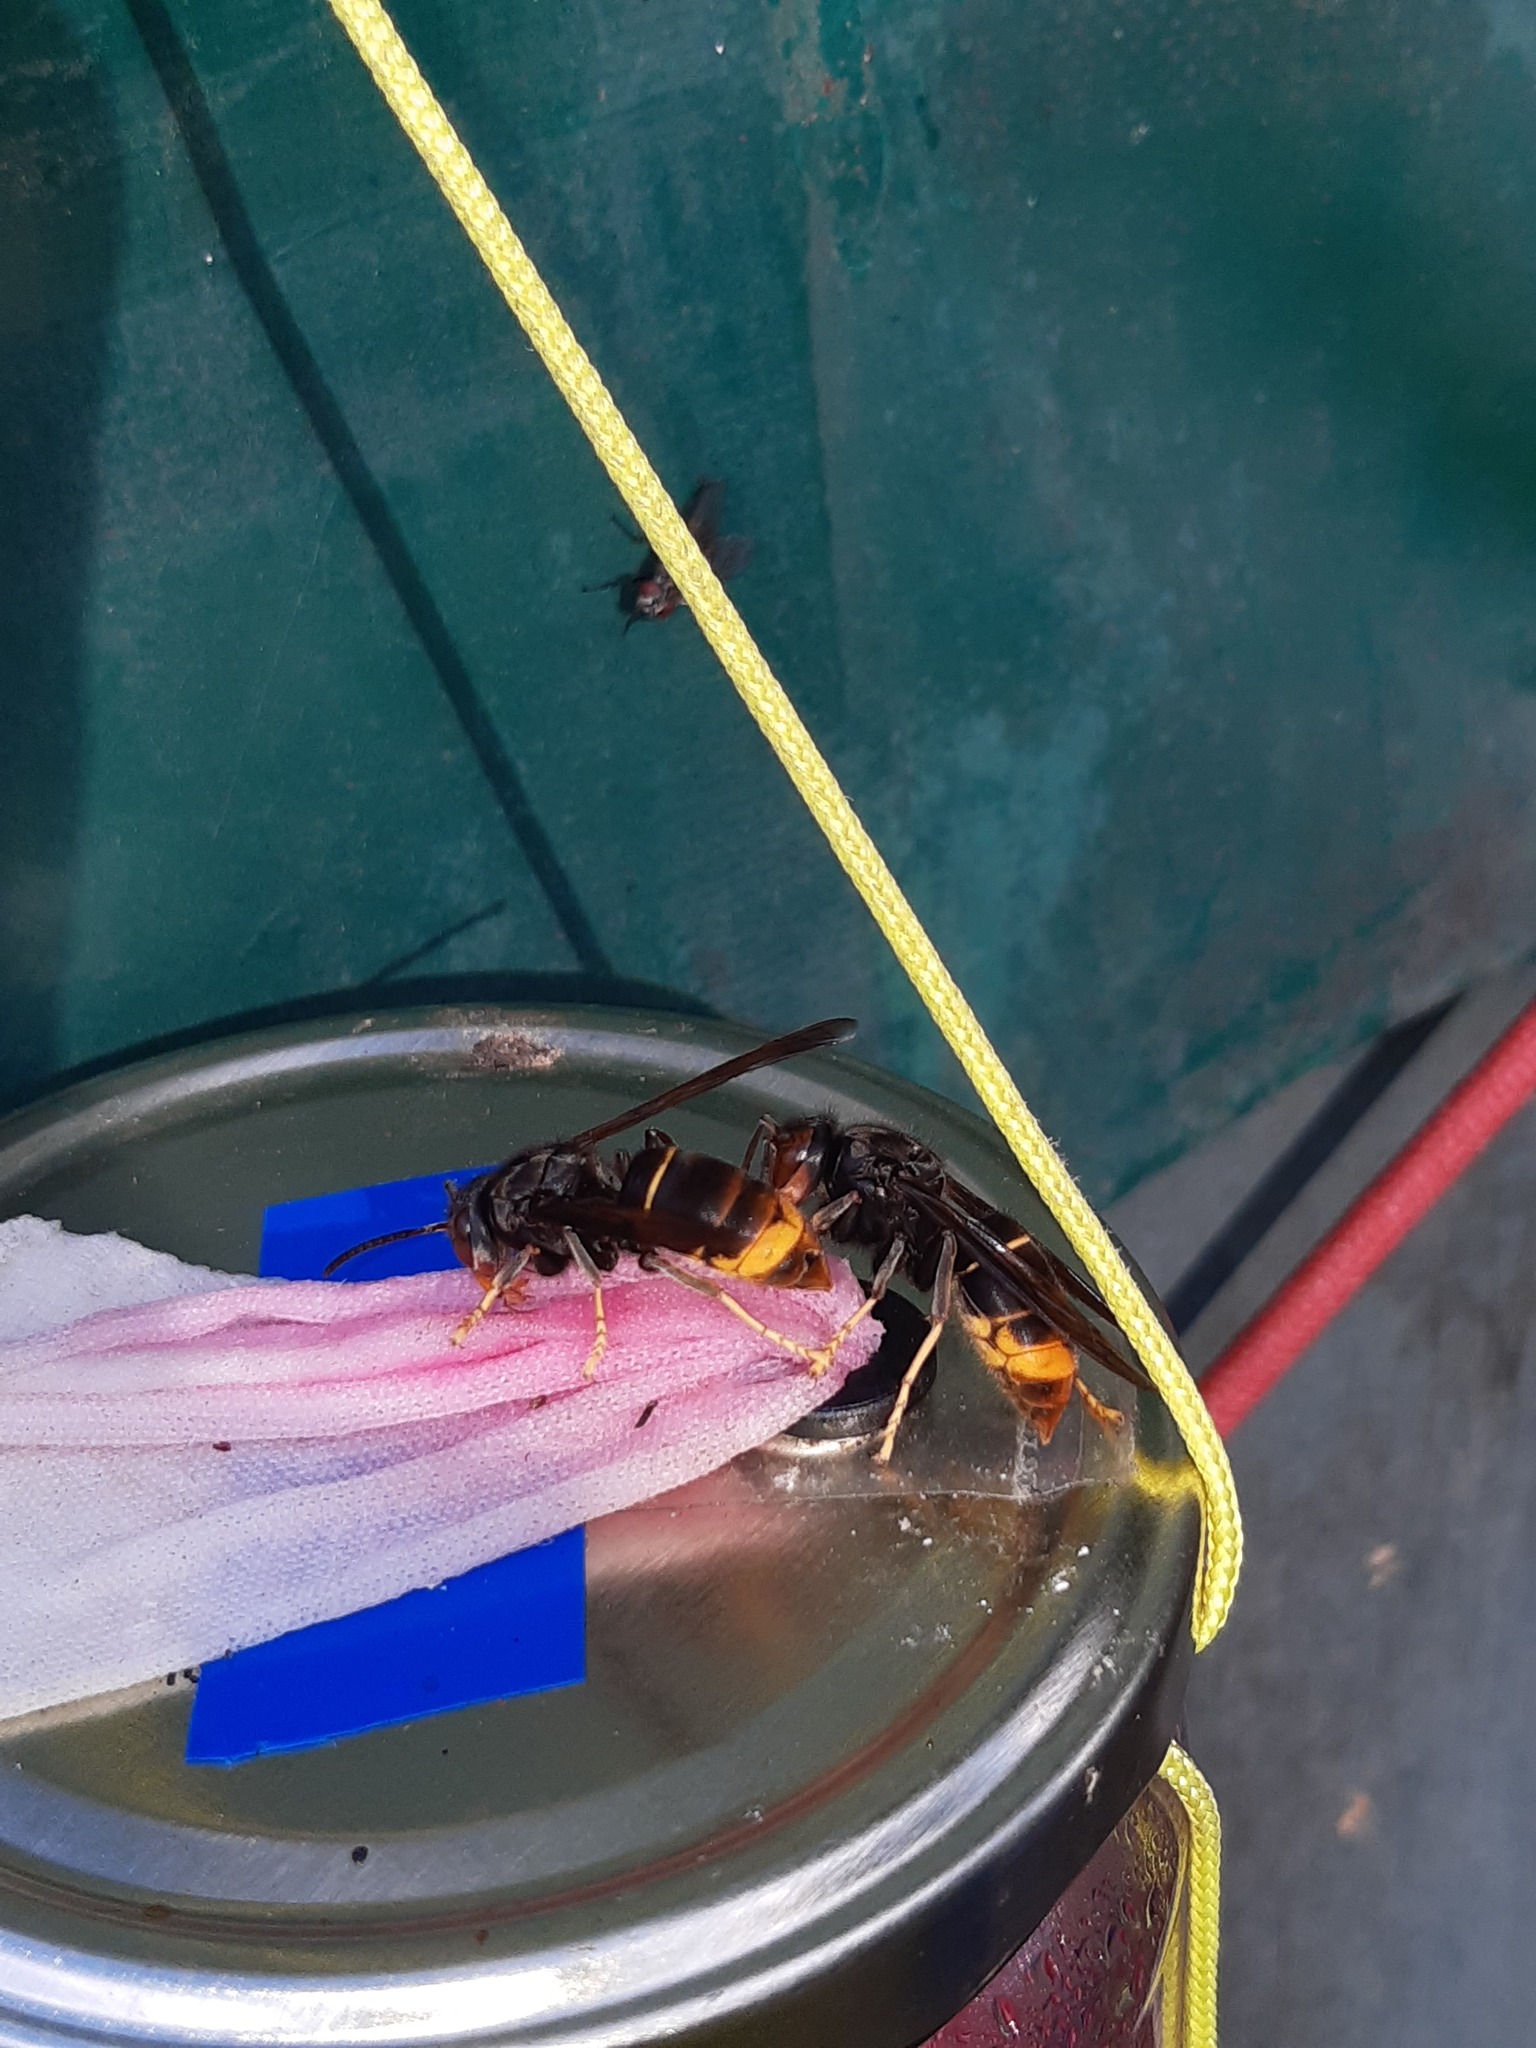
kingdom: Animalia
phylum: Arthropoda
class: Insecta
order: Hymenoptera
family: Vespidae
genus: Vespa
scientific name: Vespa velutina
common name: Asian hornet
